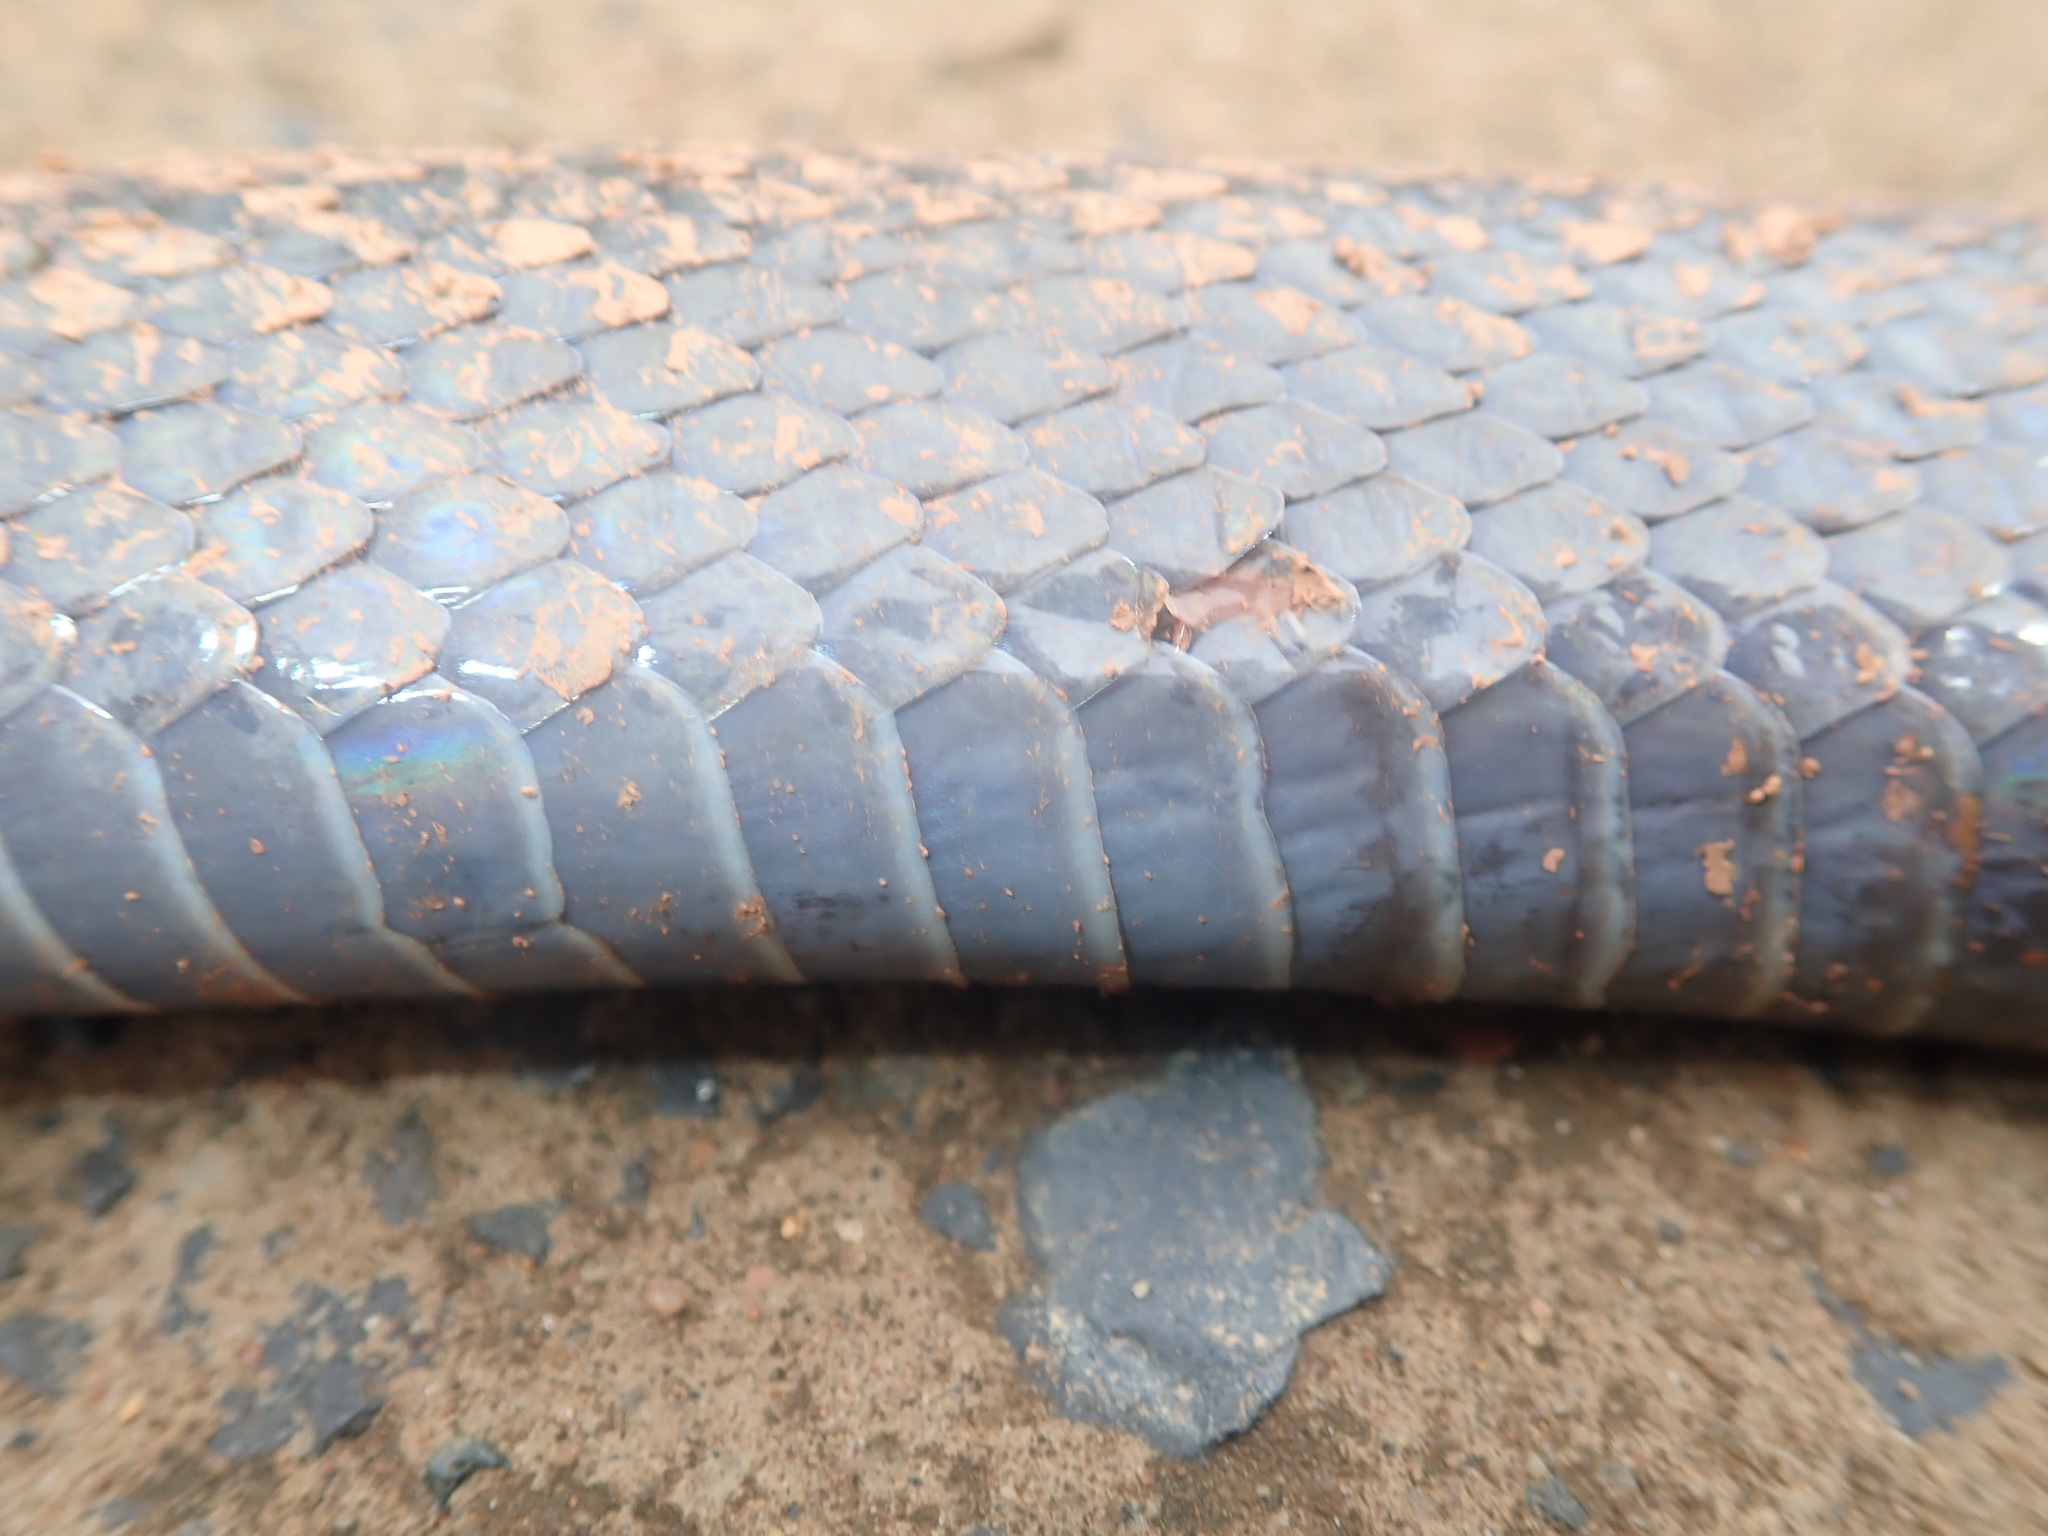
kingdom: Animalia
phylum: Chordata
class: Squamata
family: Lamprophiidae
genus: Lycodonomorphus
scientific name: Lycodonomorphus inornatus
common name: Black house snake
